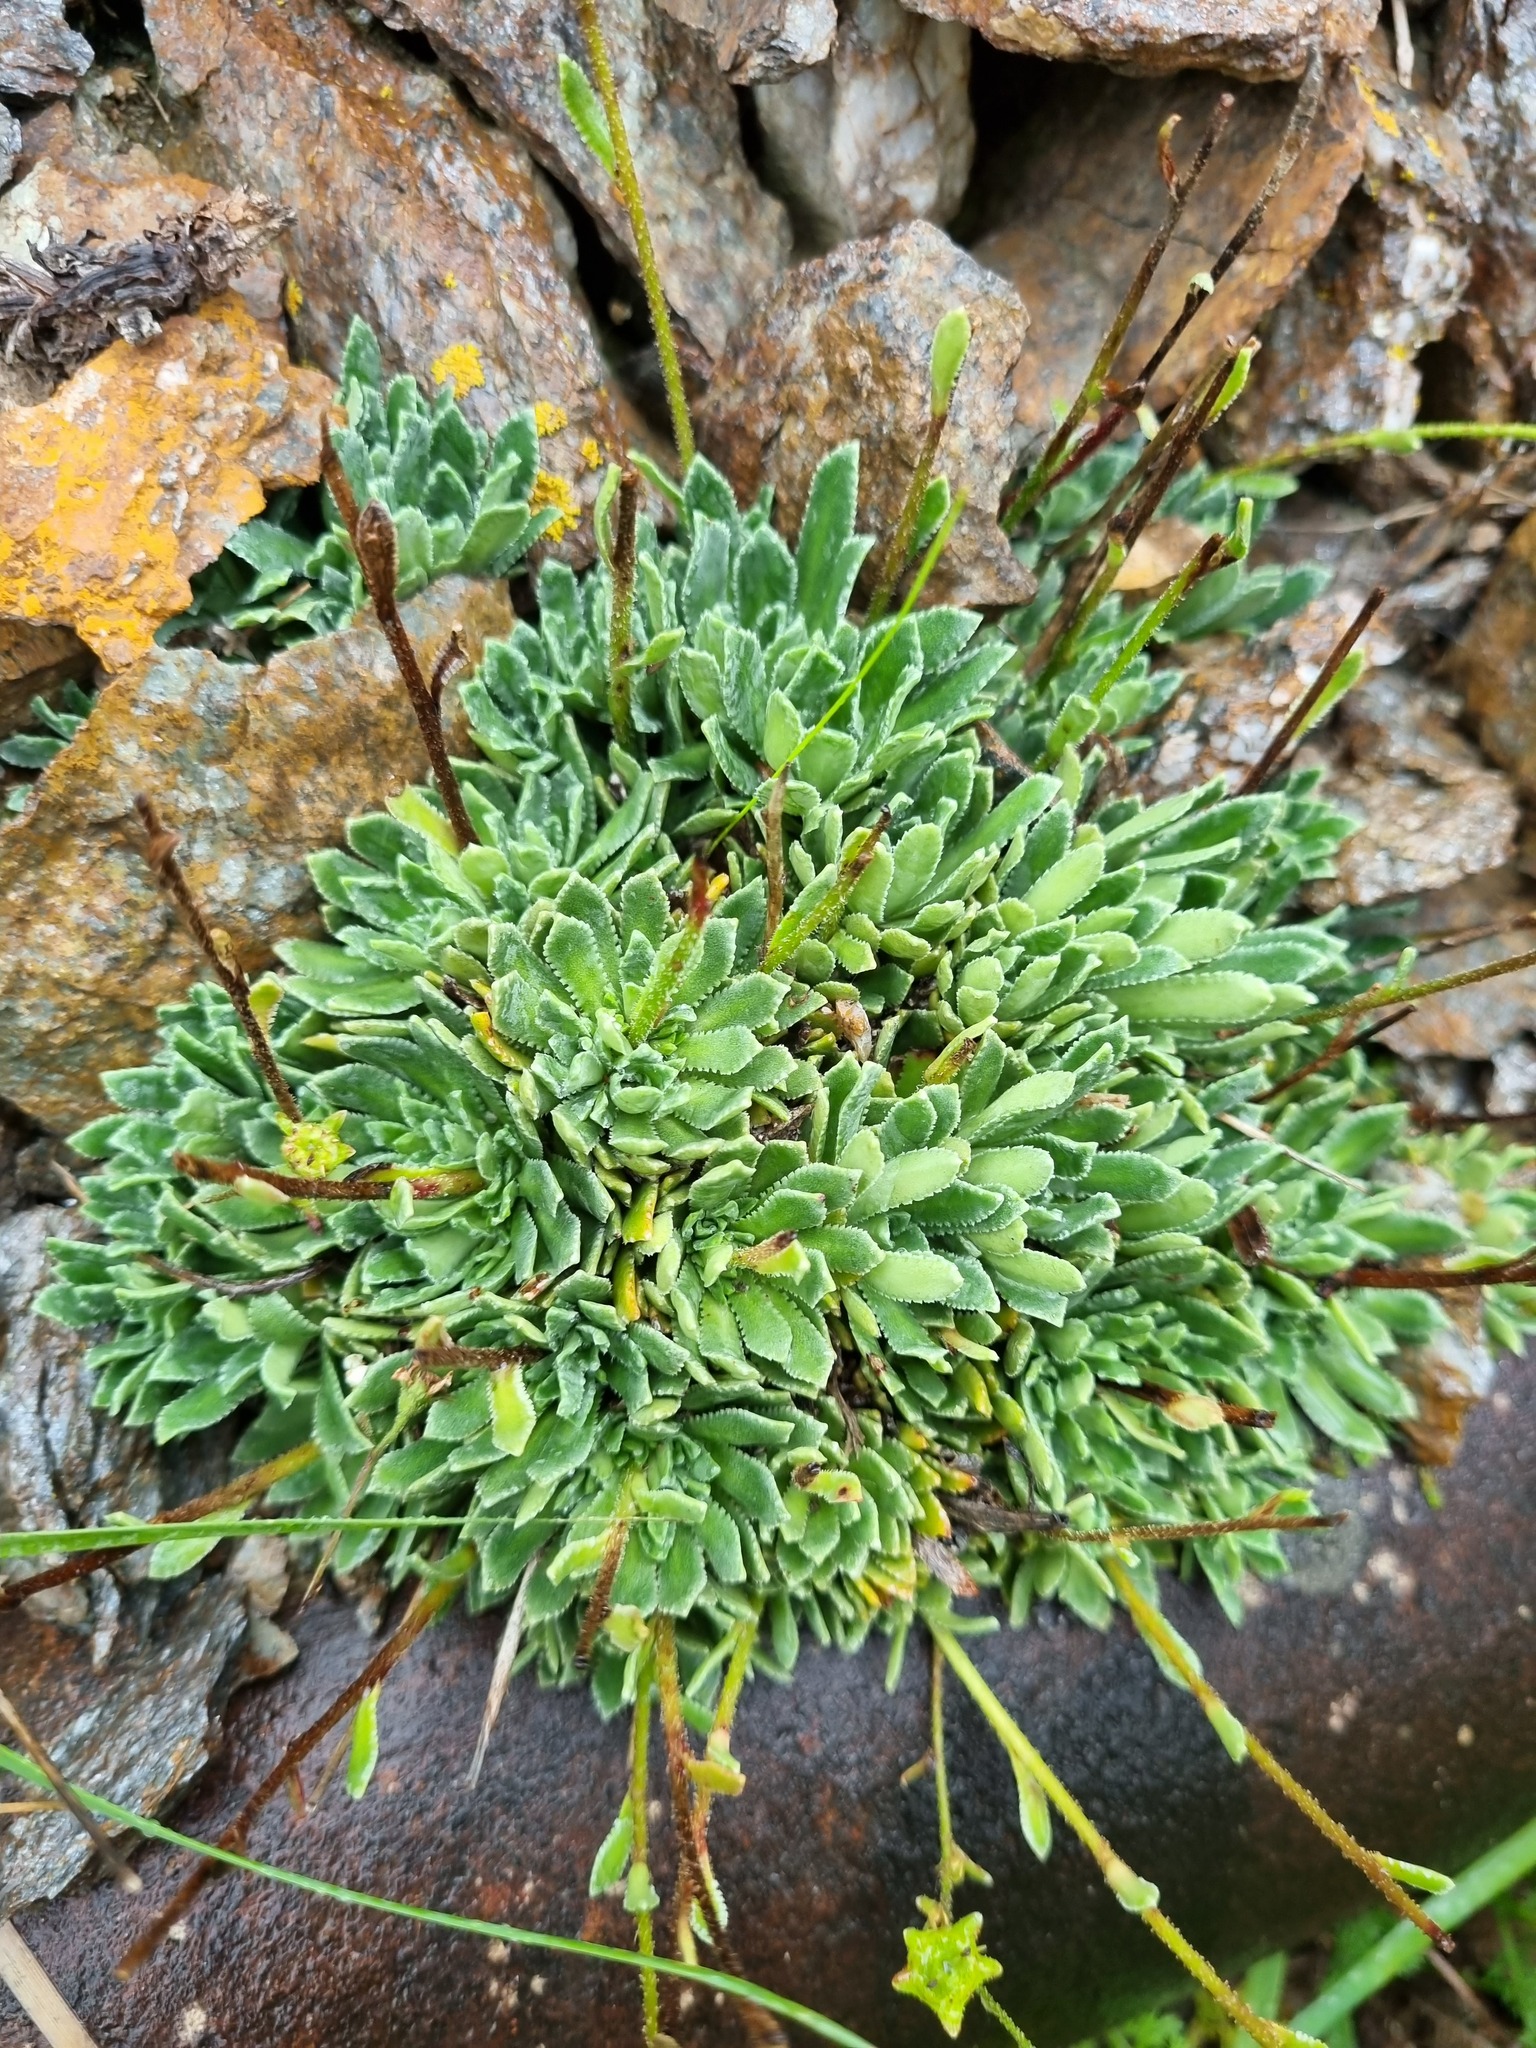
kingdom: Plantae
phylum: Tracheophyta
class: Magnoliopsida
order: Saxifragales
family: Saxifragaceae
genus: Saxifraga
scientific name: Saxifraga paniculata
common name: Livelong saxifrage
